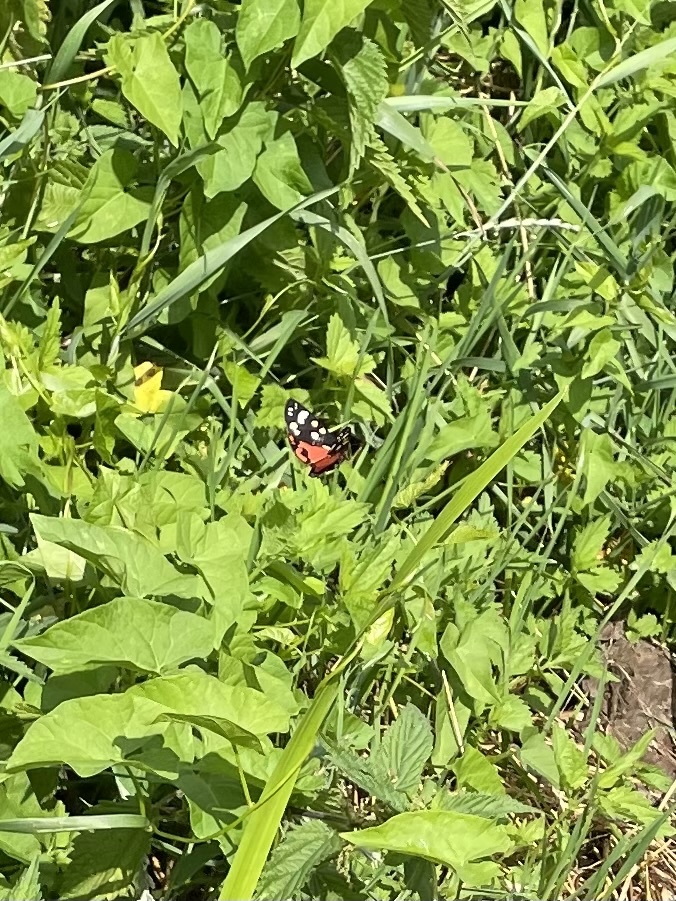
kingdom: Animalia
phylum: Arthropoda
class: Insecta
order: Lepidoptera
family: Erebidae
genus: Callimorpha
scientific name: Callimorpha dominula
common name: Scarlet tiger
